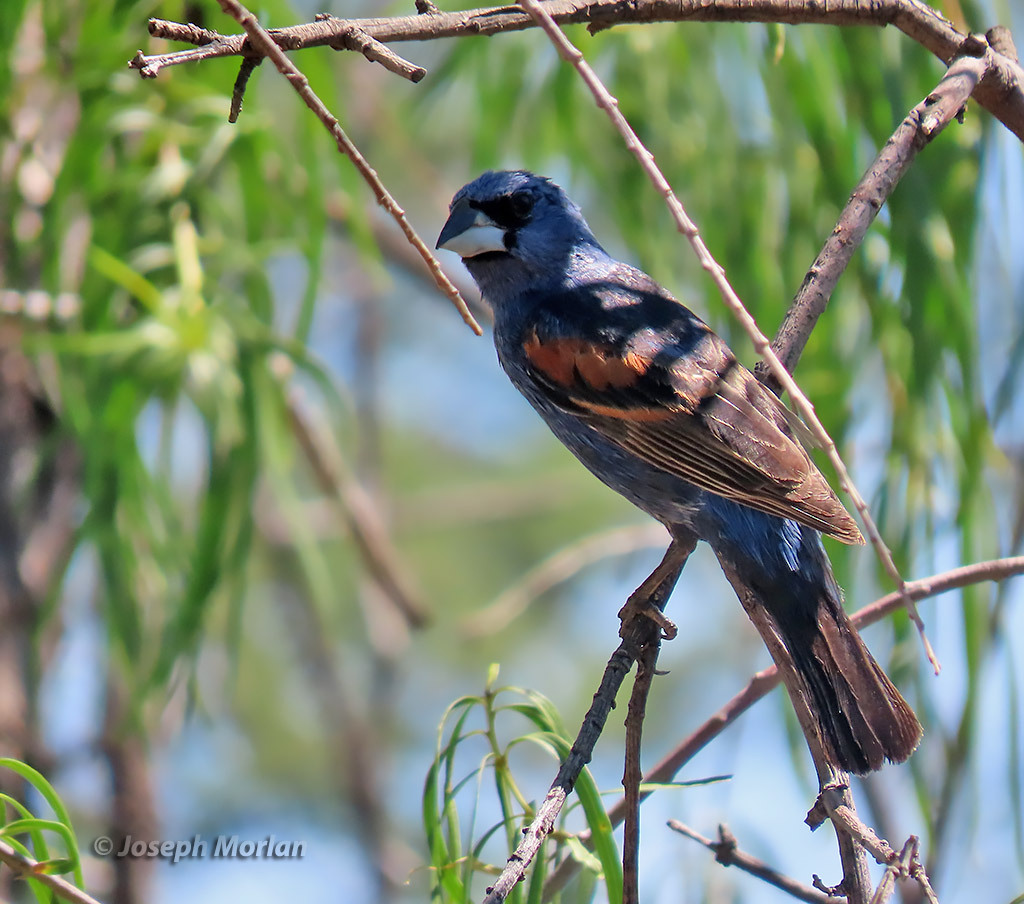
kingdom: Animalia
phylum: Chordata
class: Aves
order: Passeriformes
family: Cardinalidae
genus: Passerina
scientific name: Passerina caerulea
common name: Blue grosbeak
